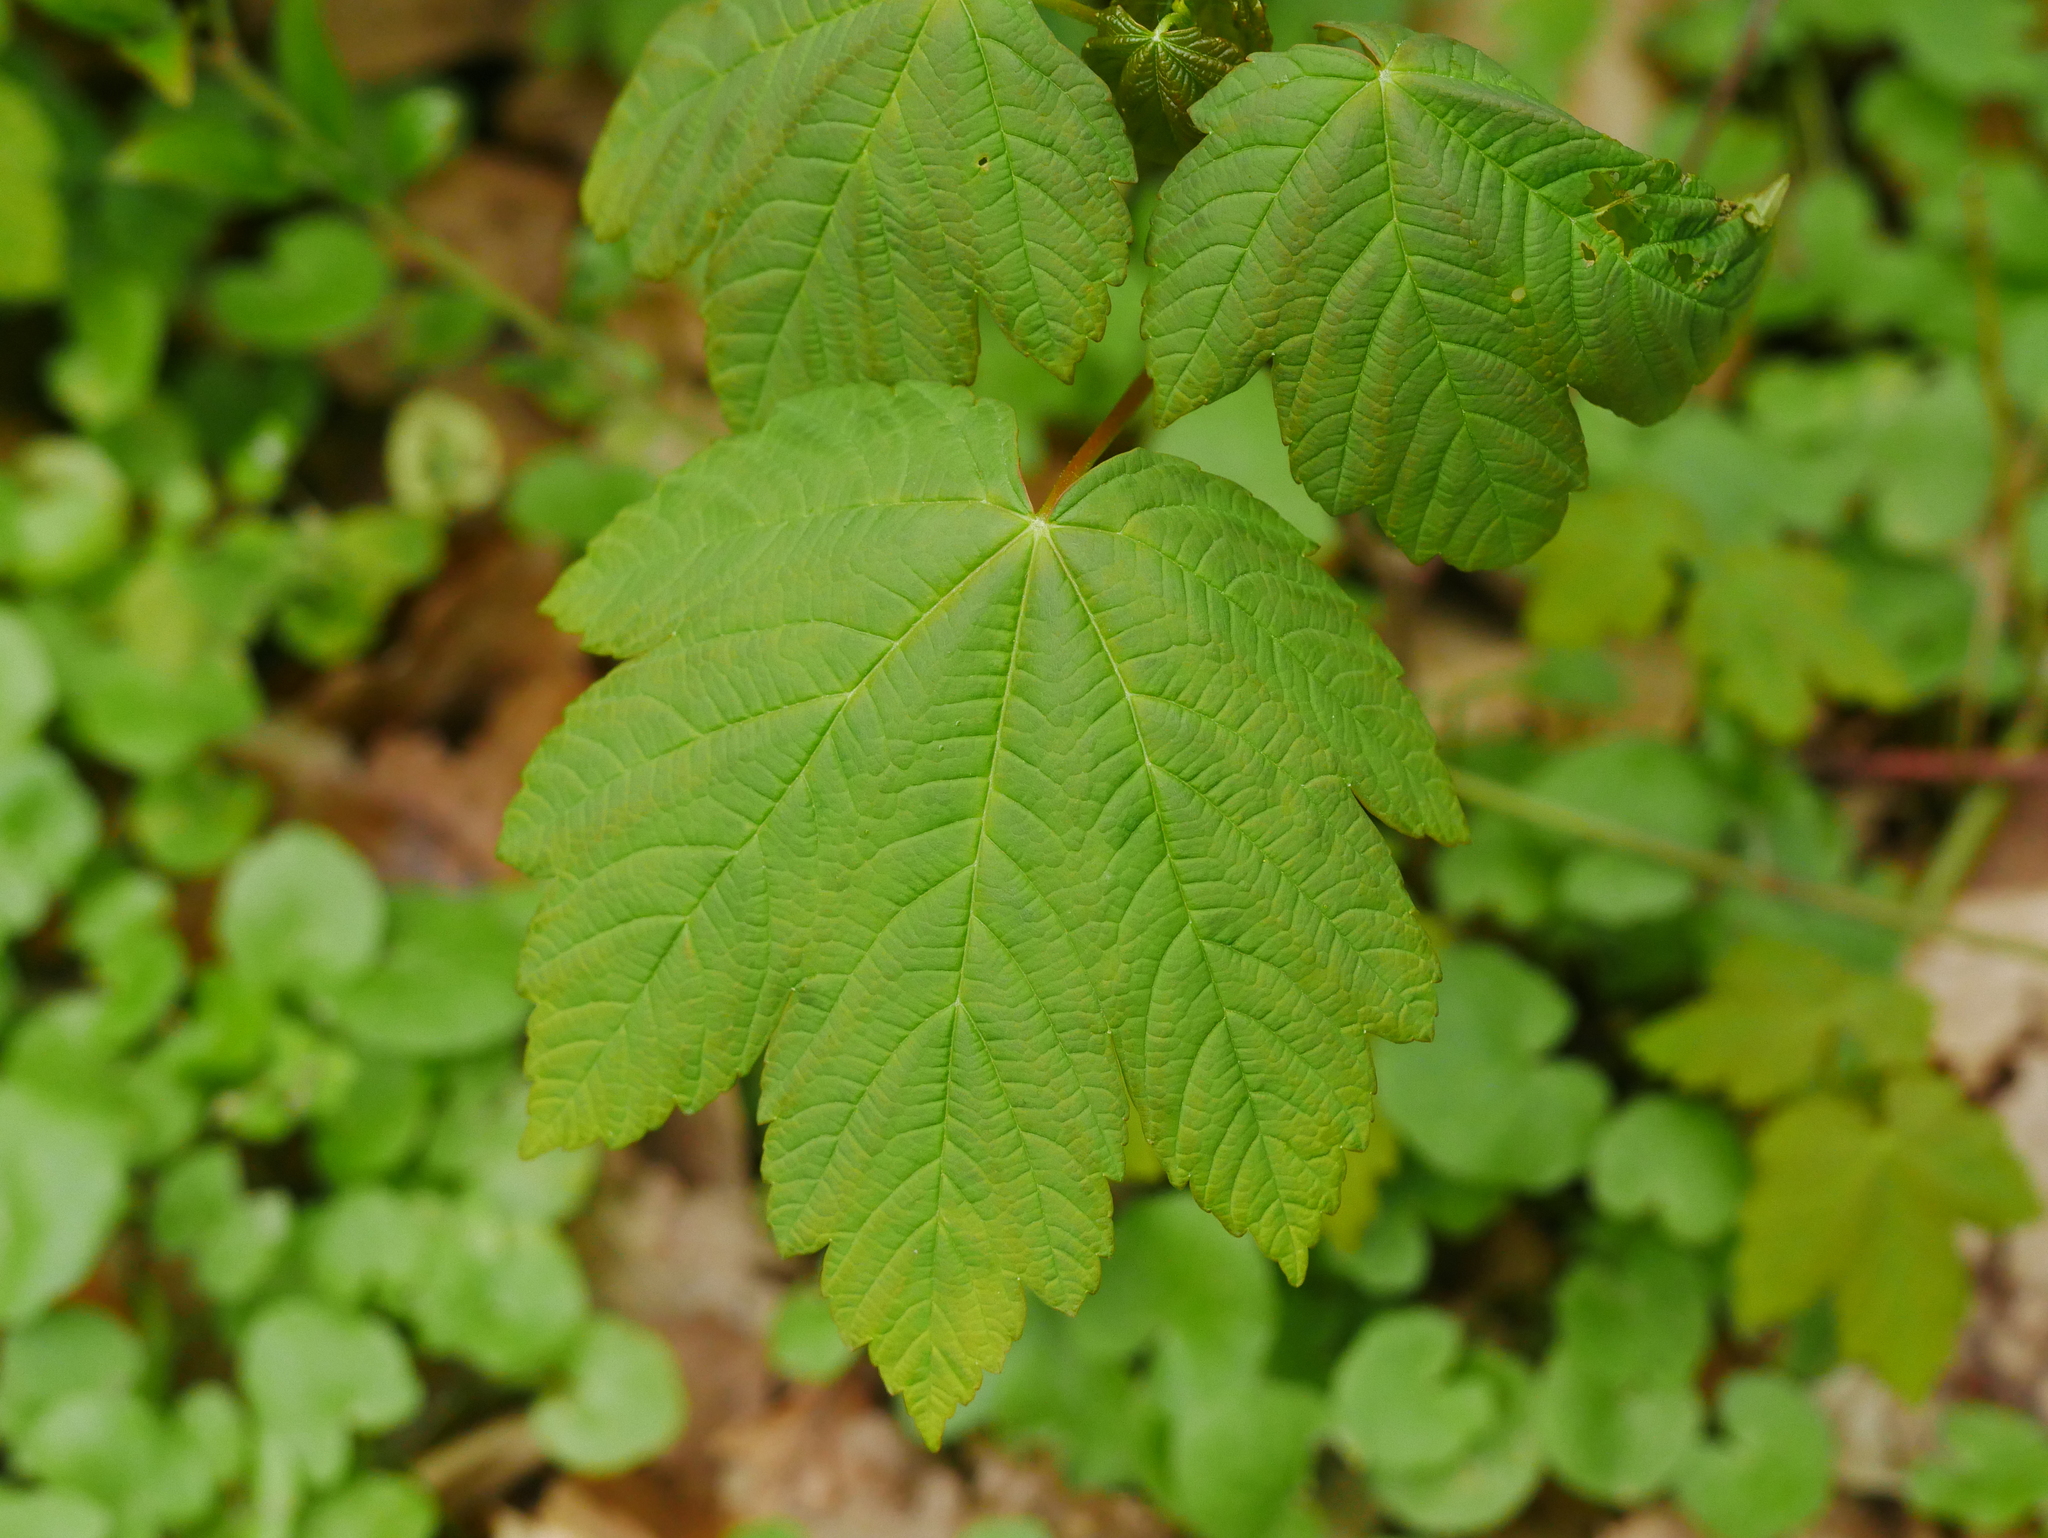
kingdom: Plantae
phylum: Tracheophyta
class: Magnoliopsida
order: Sapindales
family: Sapindaceae
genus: Acer
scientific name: Acer pseudoplatanus
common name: Sycamore
